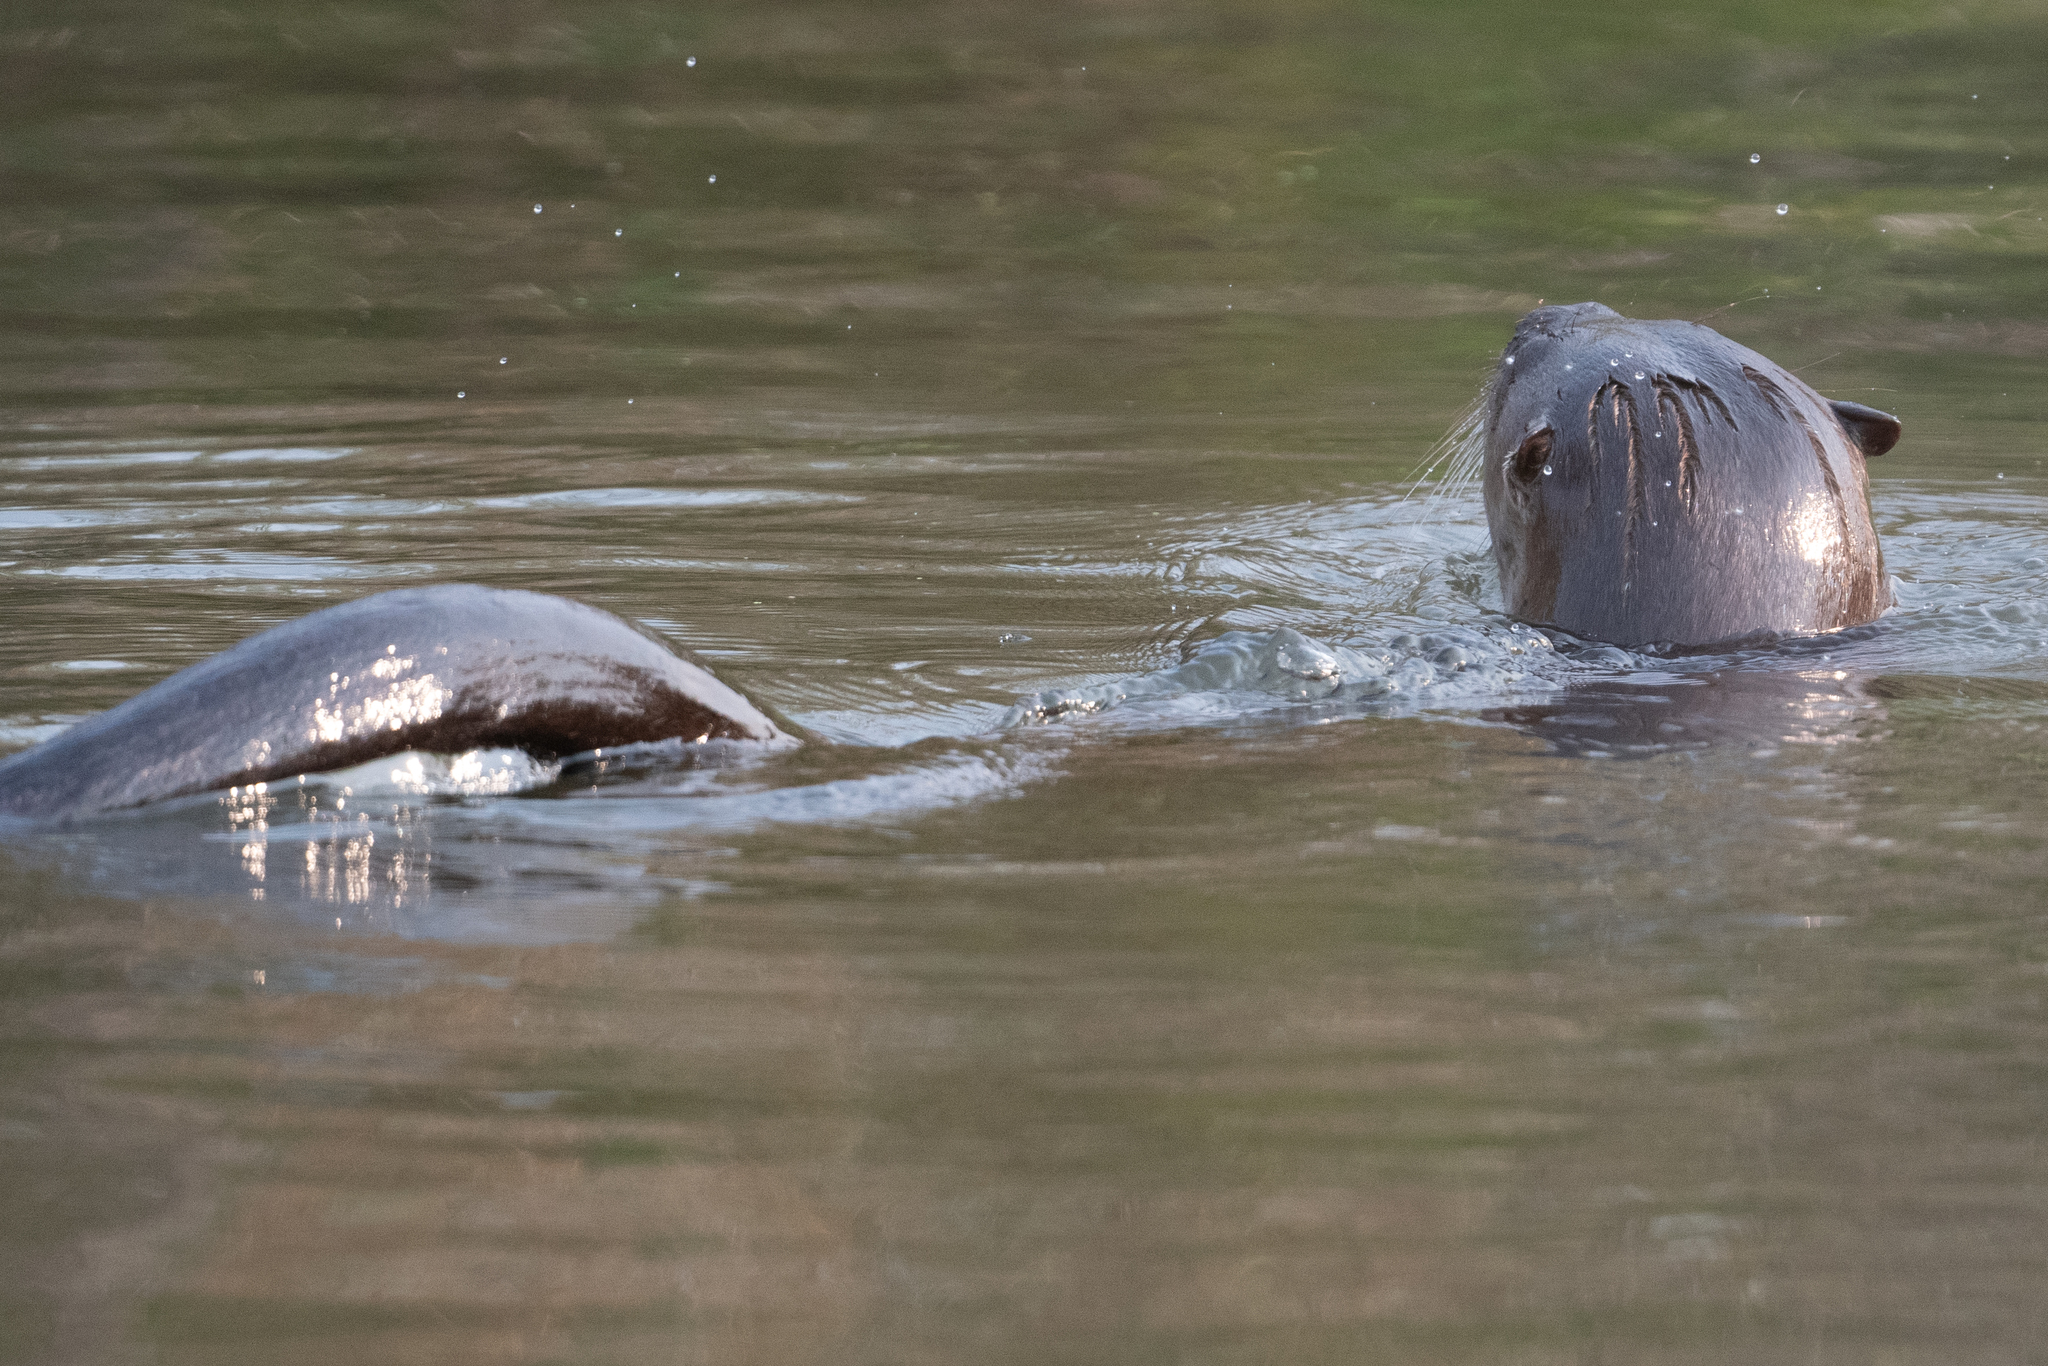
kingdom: Animalia
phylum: Chordata
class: Mammalia
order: Carnivora
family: Mustelidae
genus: Lontra
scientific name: Lontra canadensis
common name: North american river otter
